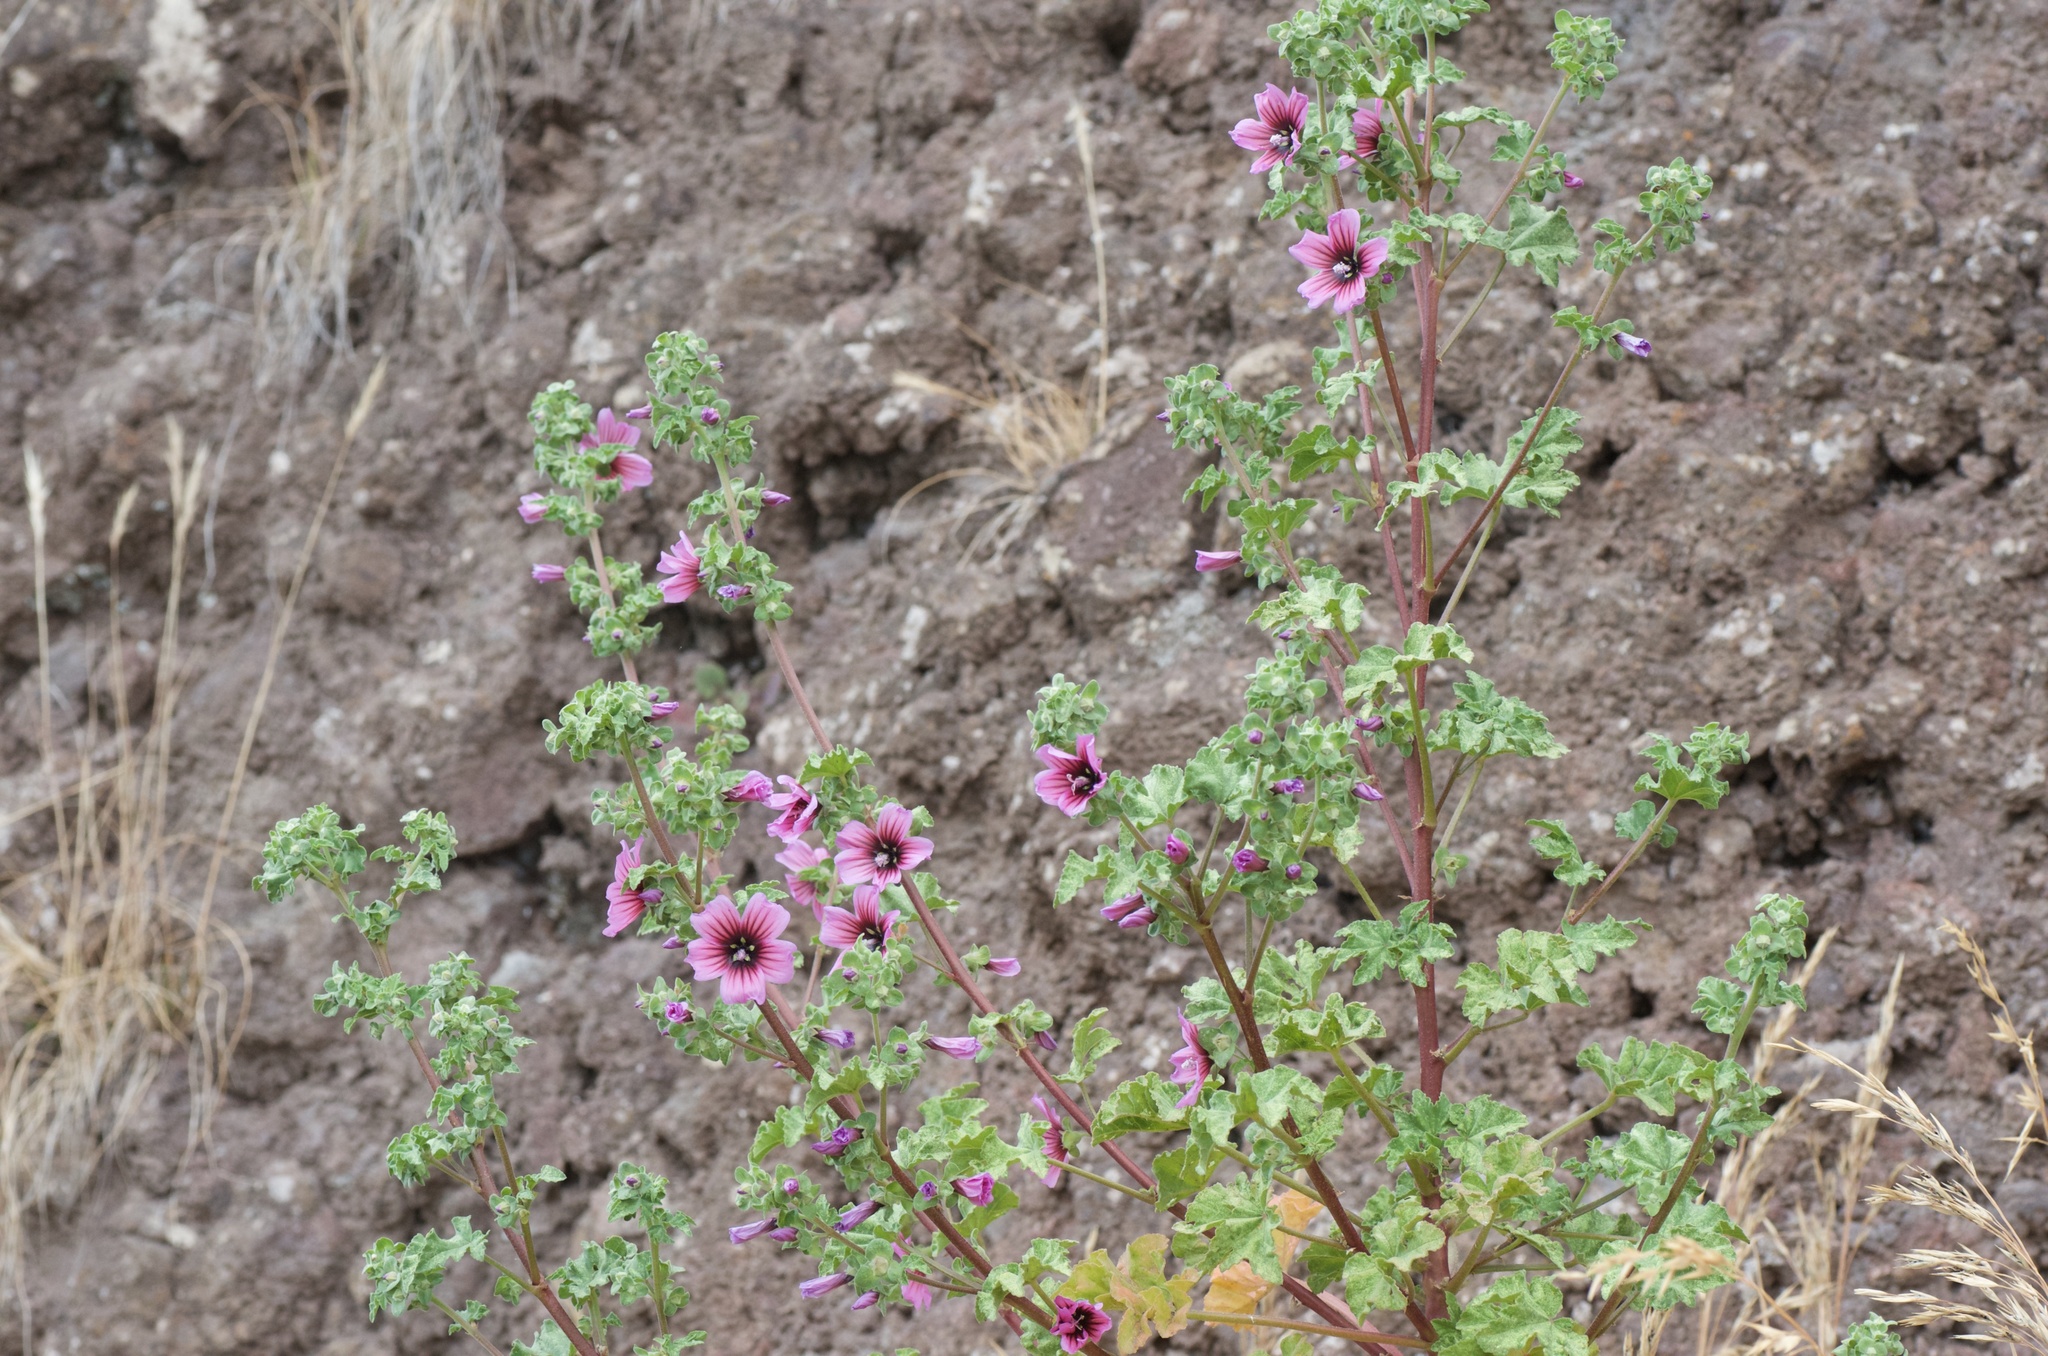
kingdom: Plantae
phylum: Tracheophyta
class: Magnoliopsida
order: Malvales
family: Malvaceae
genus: Malva
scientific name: Malva arborea
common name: Tree mallow
